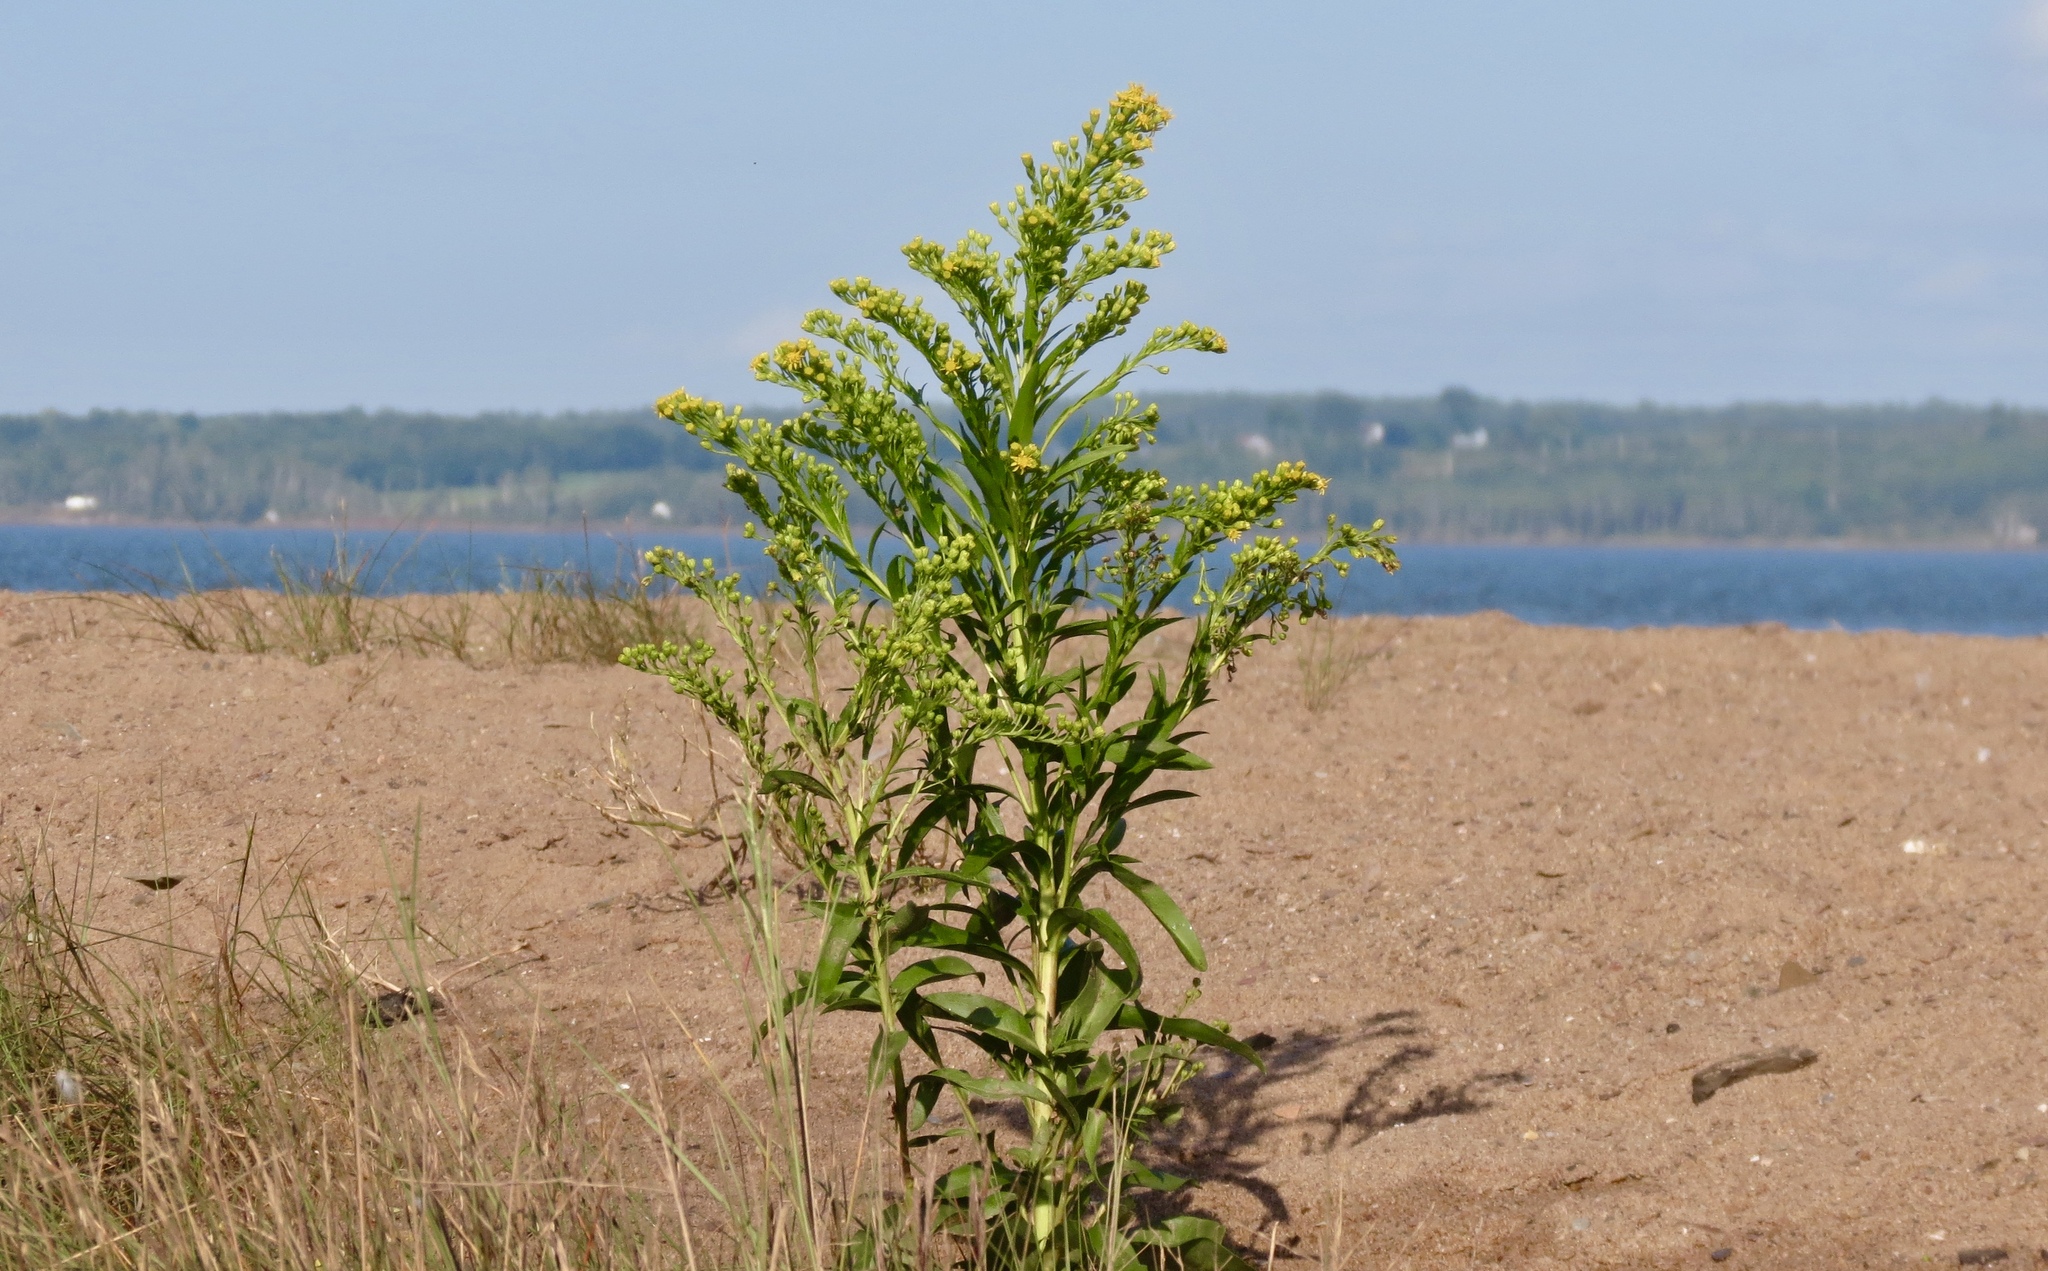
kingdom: Plantae
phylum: Tracheophyta
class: Magnoliopsida
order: Asterales
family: Asteraceae
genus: Solidago
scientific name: Solidago sempervirens
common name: Salt-marsh goldenrod
